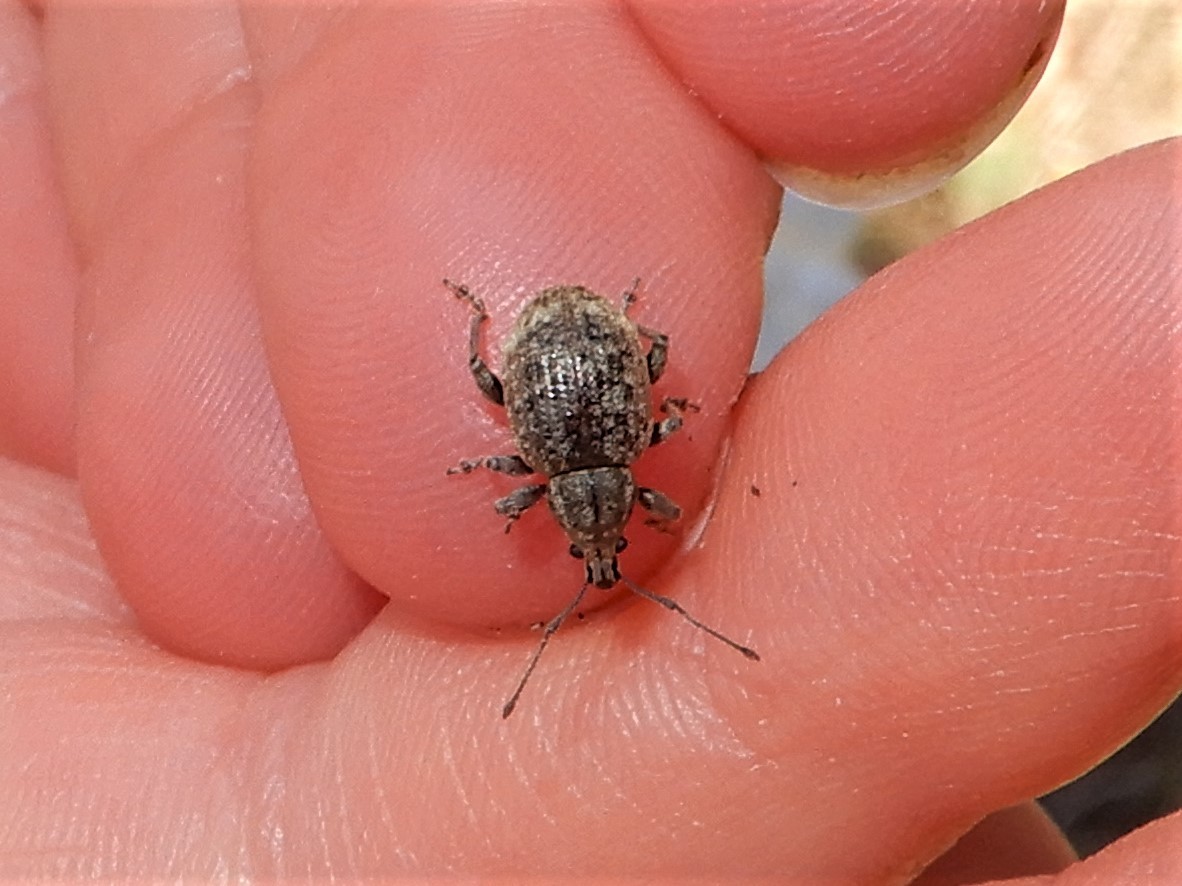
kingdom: Animalia
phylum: Arthropoda
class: Insecta
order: Coleoptera
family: Curculionidae
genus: Phlyctinus
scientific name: Phlyctinus callosus
